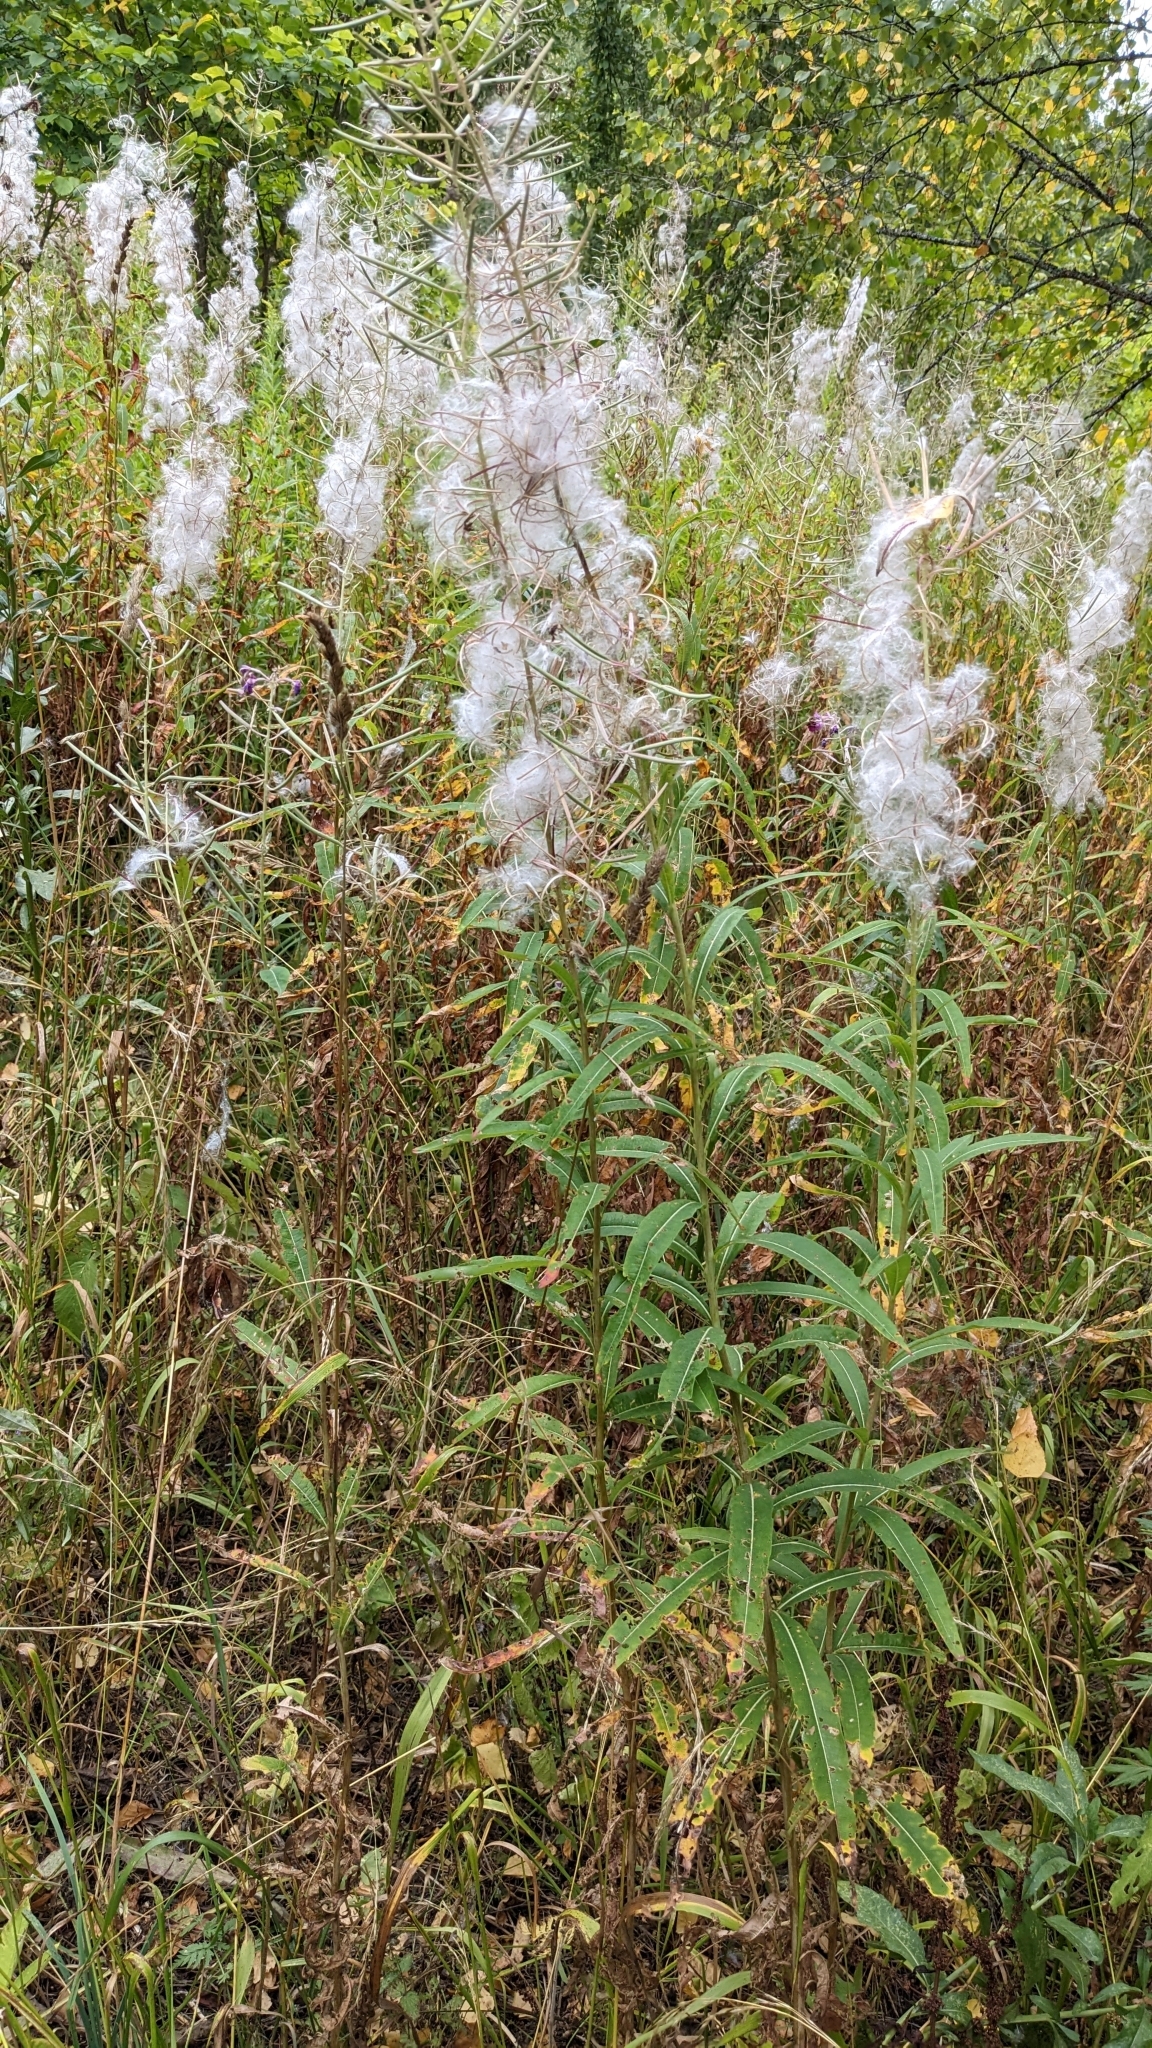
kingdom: Plantae
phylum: Tracheophyta
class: Magnoliopsida
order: Myrtales
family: Onagraceae
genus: Chamaenerion
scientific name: Chamaenerion angustifolium
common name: Fireweed
